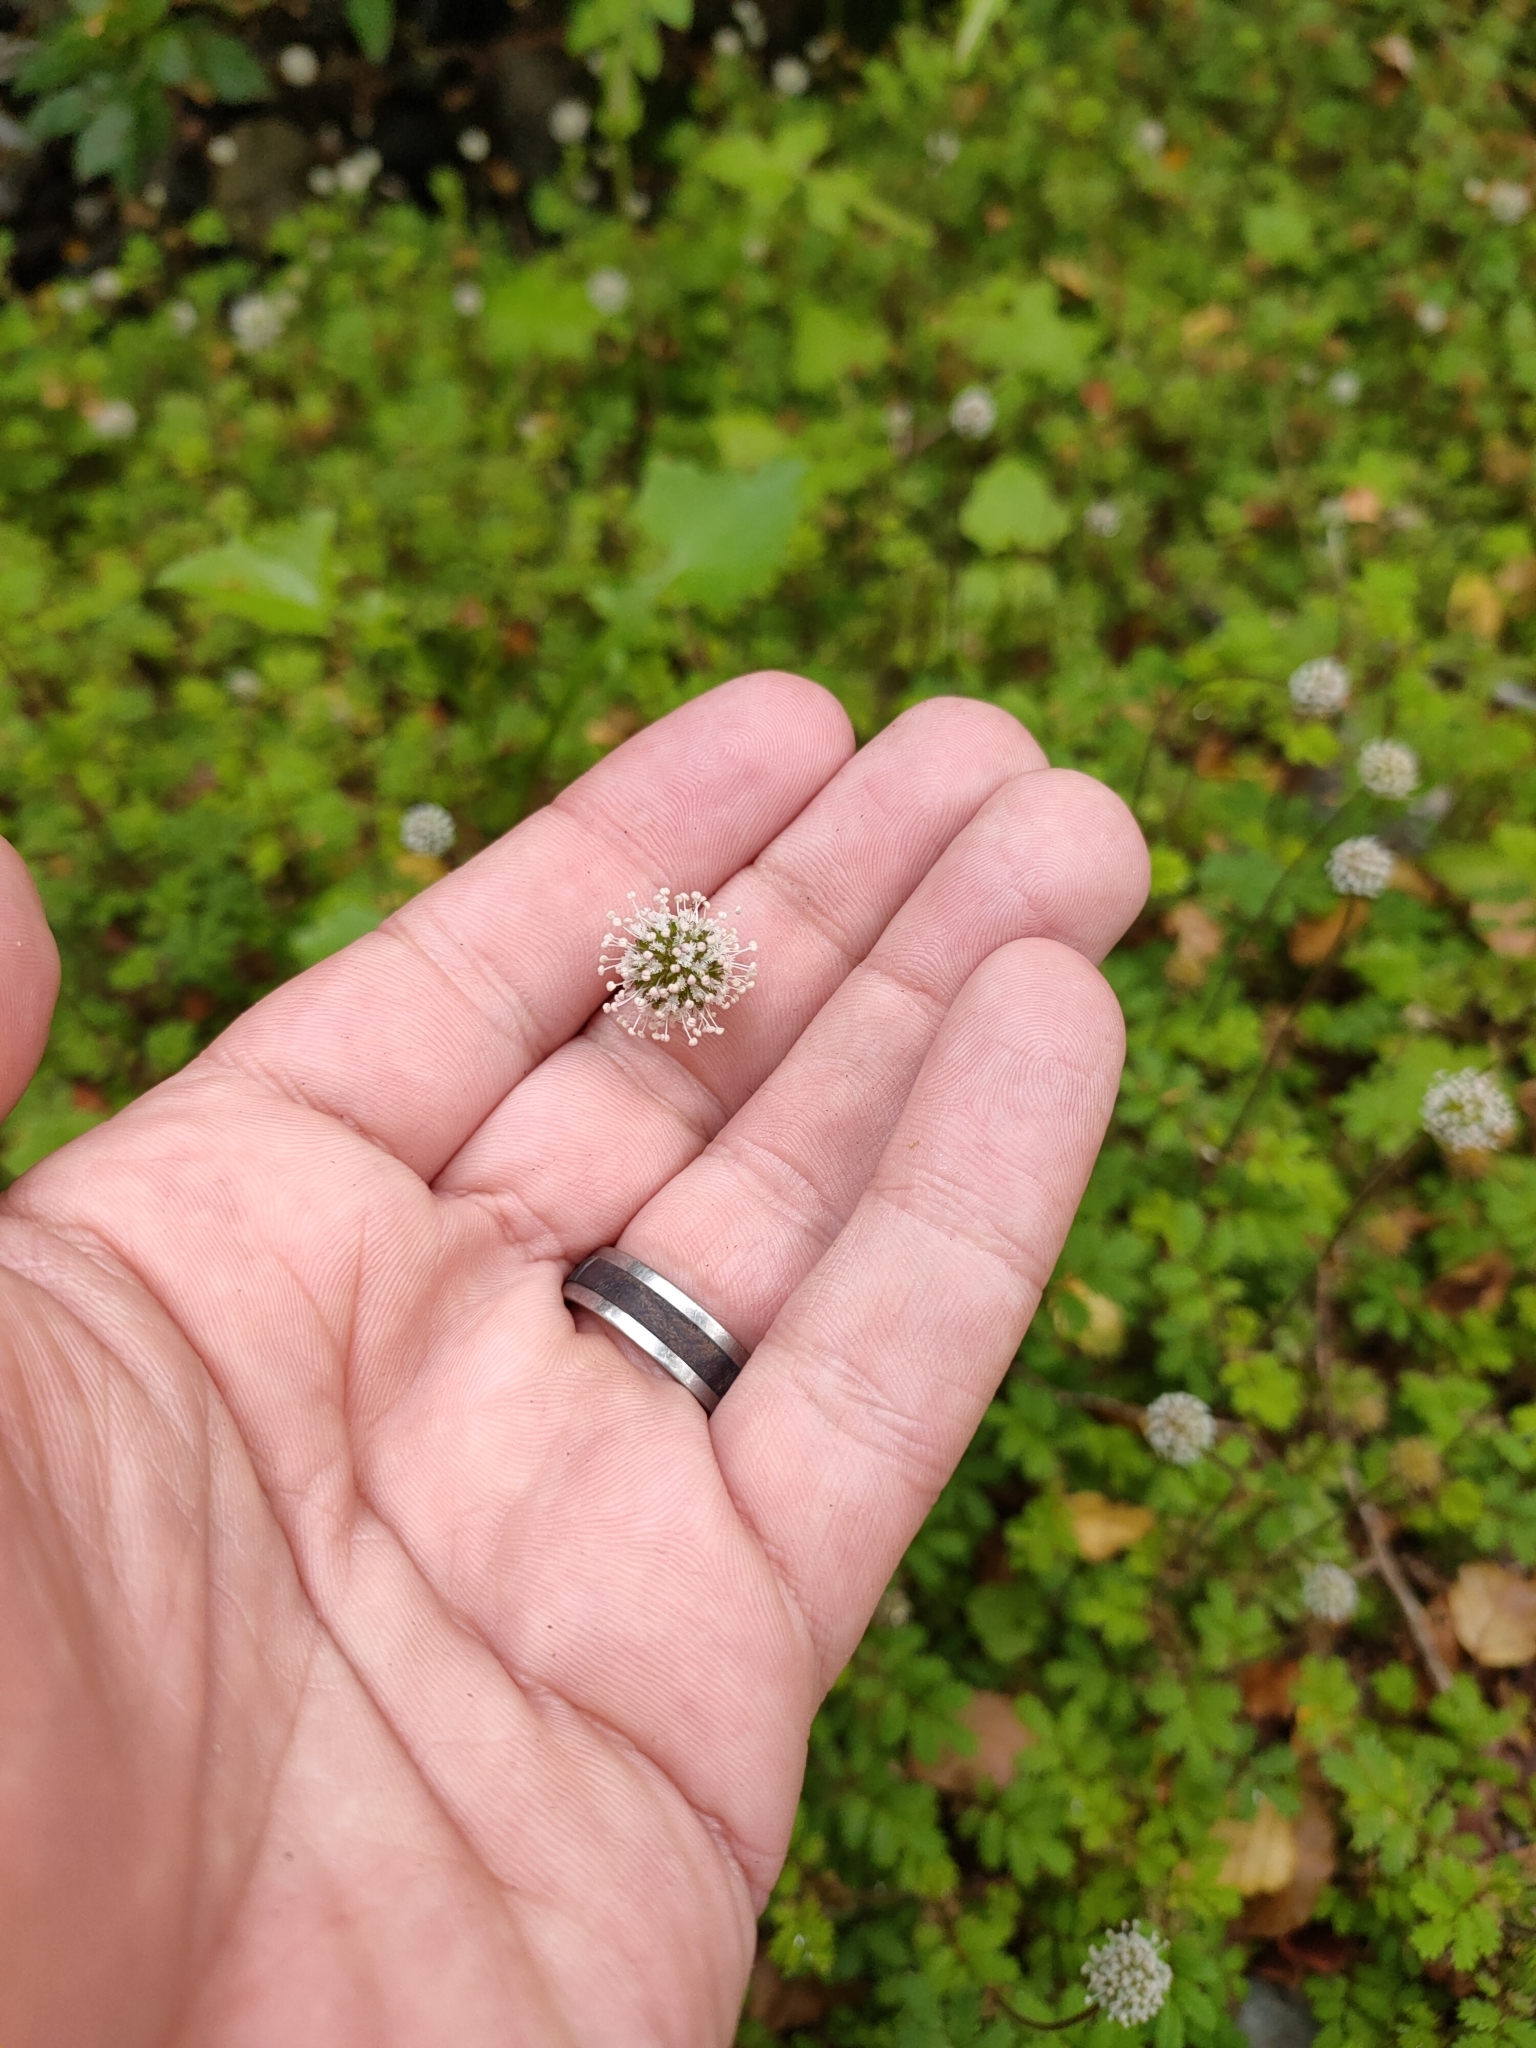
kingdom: Plantae
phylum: Tracheophyta
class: Magnoliopsida
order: Rosales
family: Rosaceae
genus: Acaena
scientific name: Acaena anserinifolia
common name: Bronze pirri-pirri-bur
